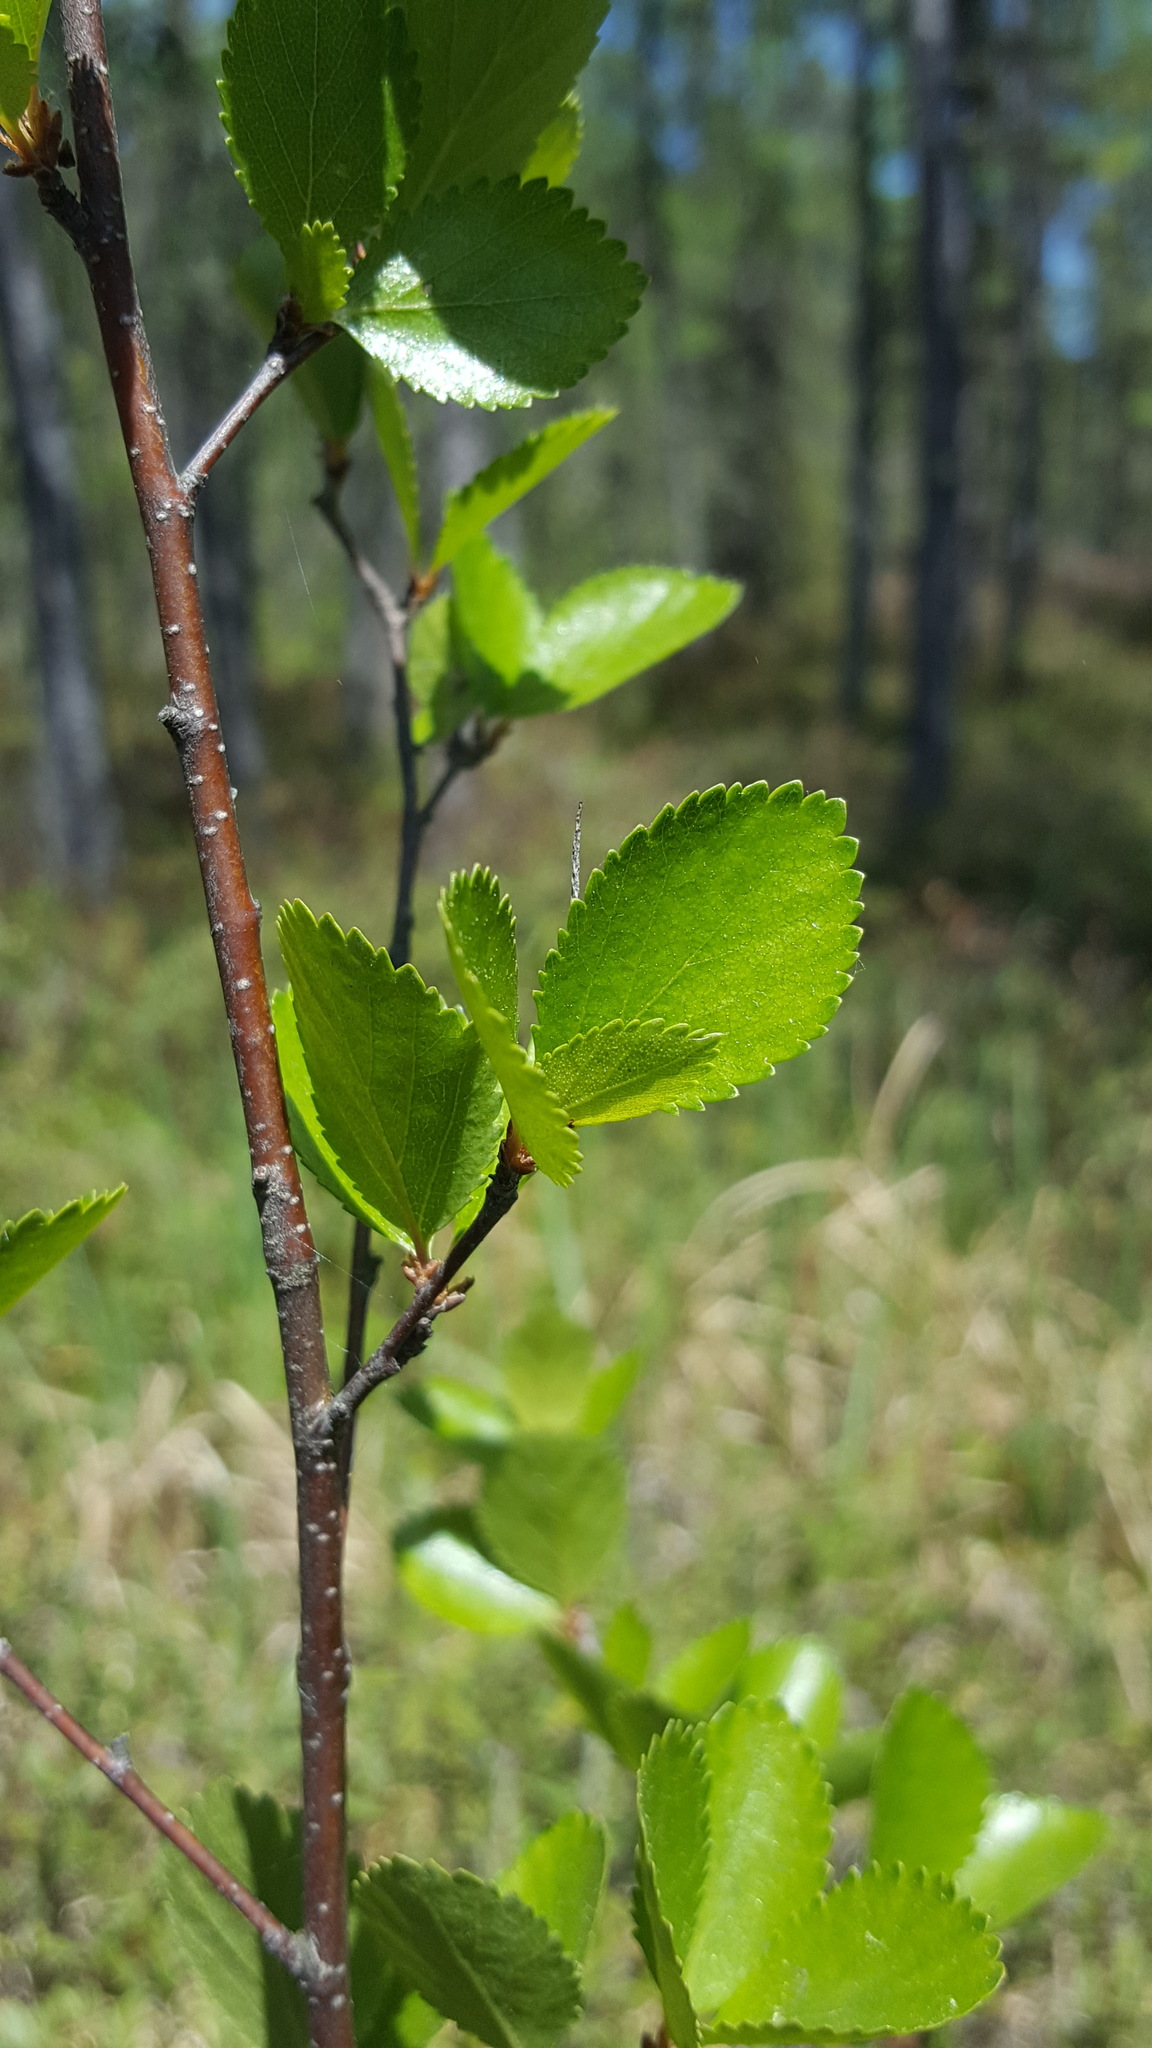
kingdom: Plantae
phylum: Tracheophyta
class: Magnoliopsida
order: Fagales
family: Betulaceae
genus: Betula
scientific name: Betula pumila
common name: Bog birch
